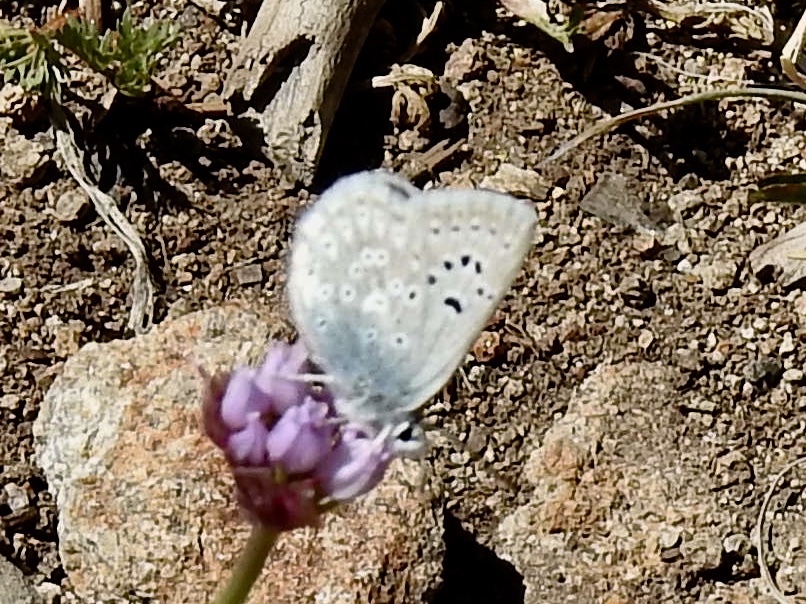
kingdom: Animalia
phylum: Arthropoda
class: Insecta
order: Lepidoptera
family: Lycaenidae
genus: Icaricia
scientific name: Icaricia icarioides
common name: Boisduval's blue
